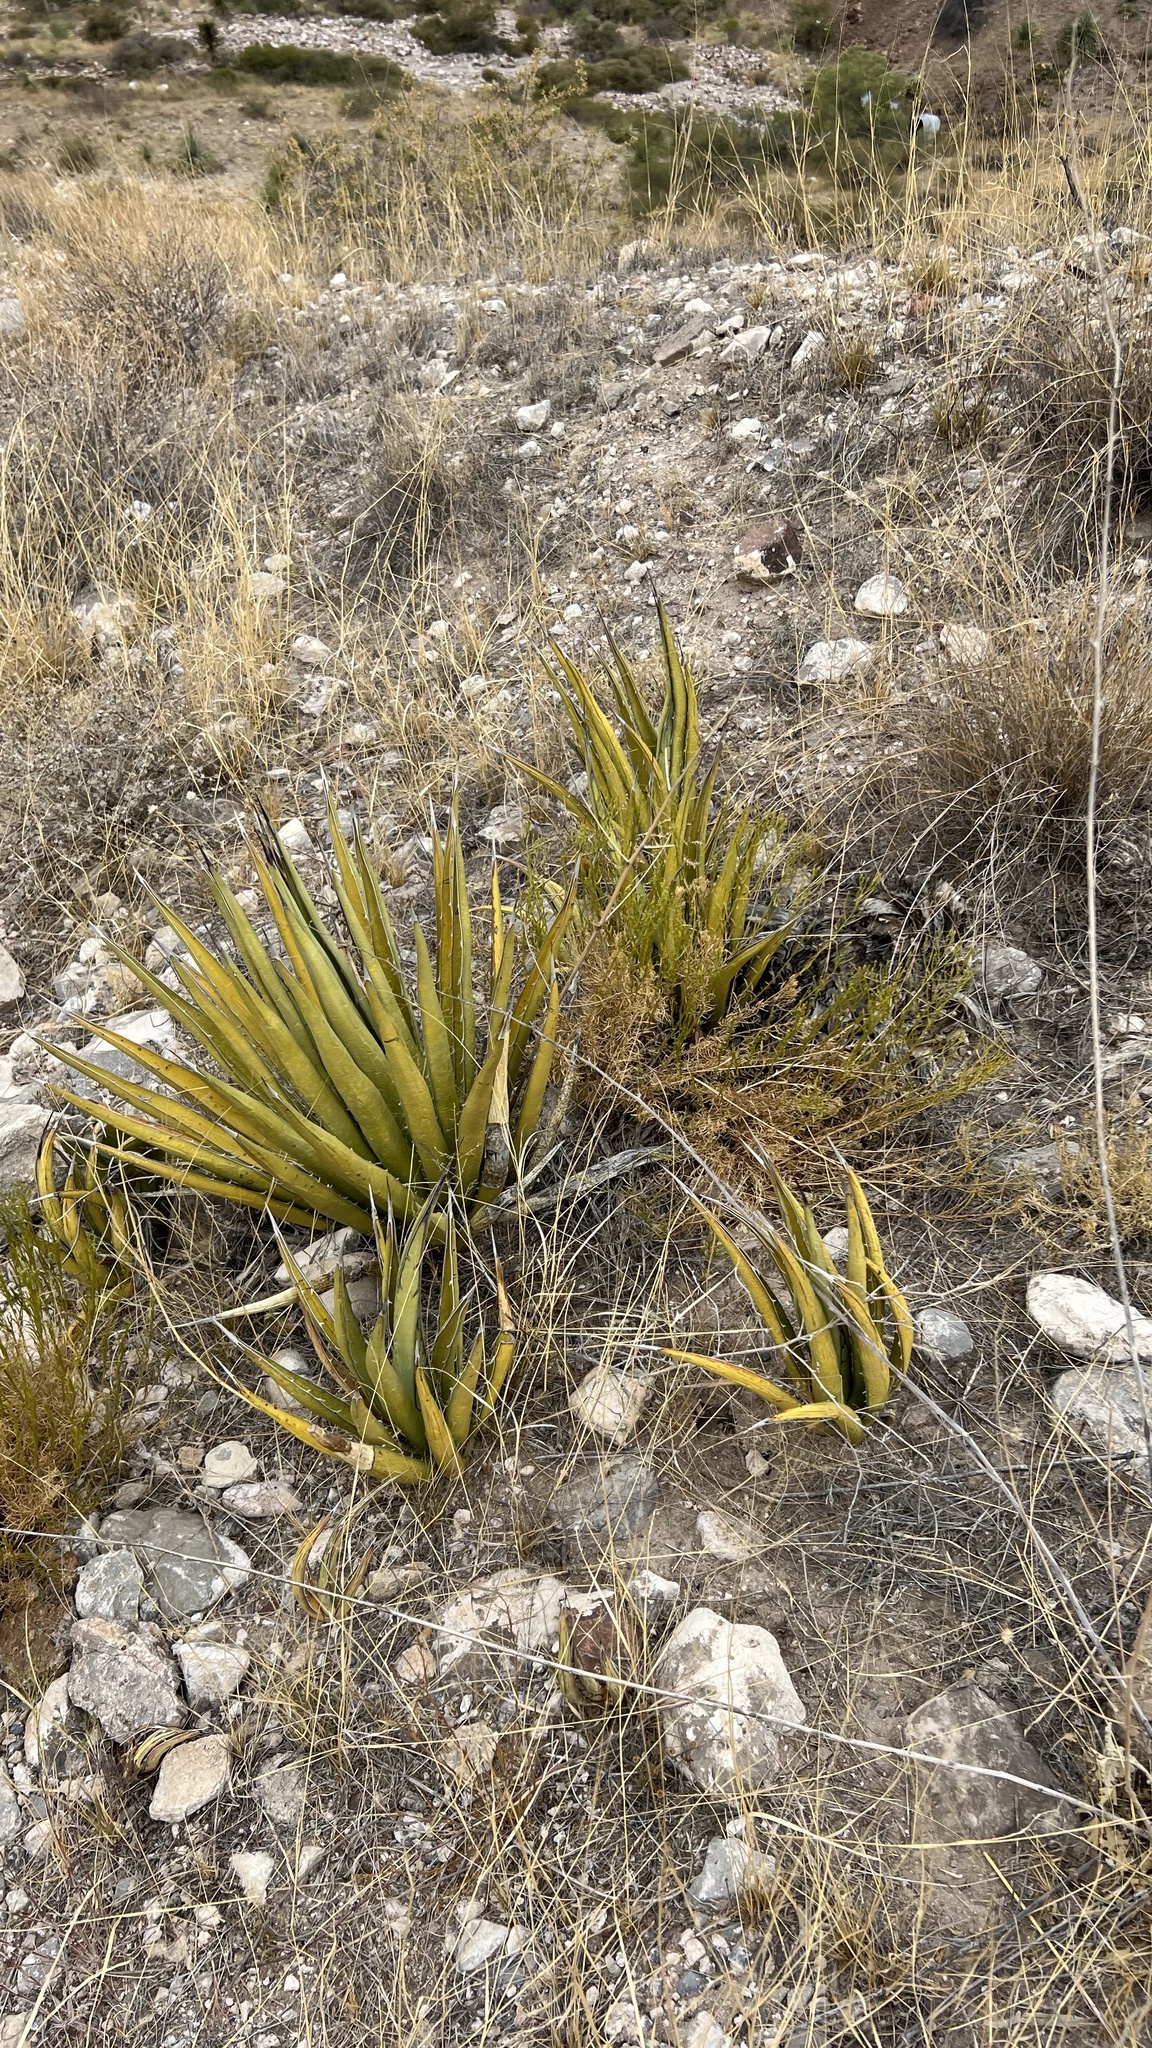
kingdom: Plantae
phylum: Tracheophyta
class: Liliopsida
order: Asparagales
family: Asparagaceae
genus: Agave
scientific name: Agave lechuguilla
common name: Lecheguilla agave
